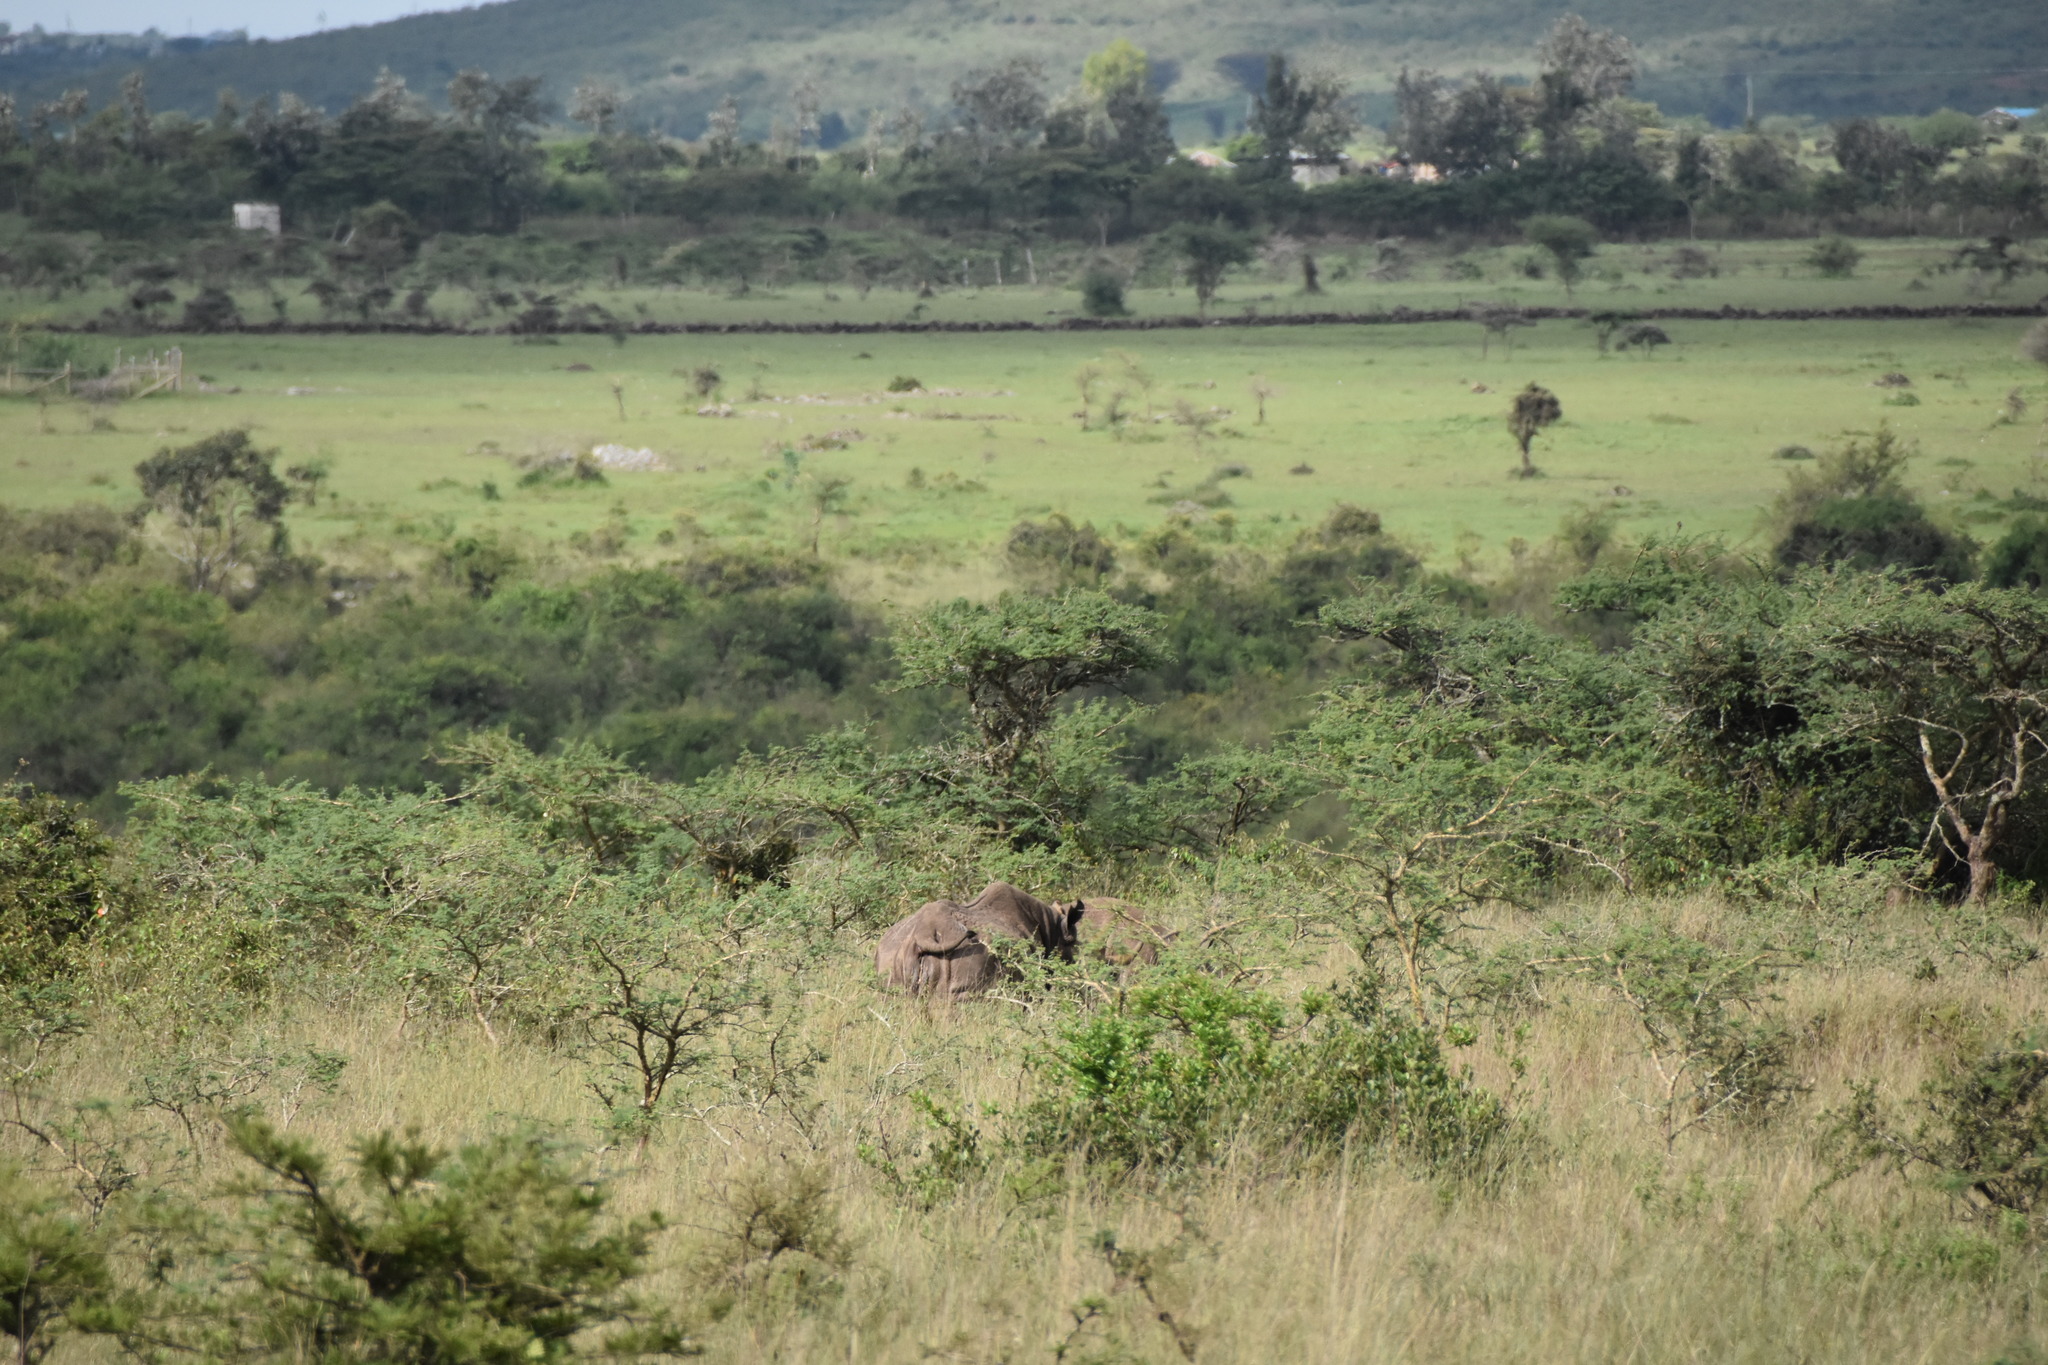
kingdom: Animalia
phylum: Chordata
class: Mammalia
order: Perissodactyla
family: Rhinocerotidae
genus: Ceratotherium
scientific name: Ceratotherium simum
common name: White rhinoceros
